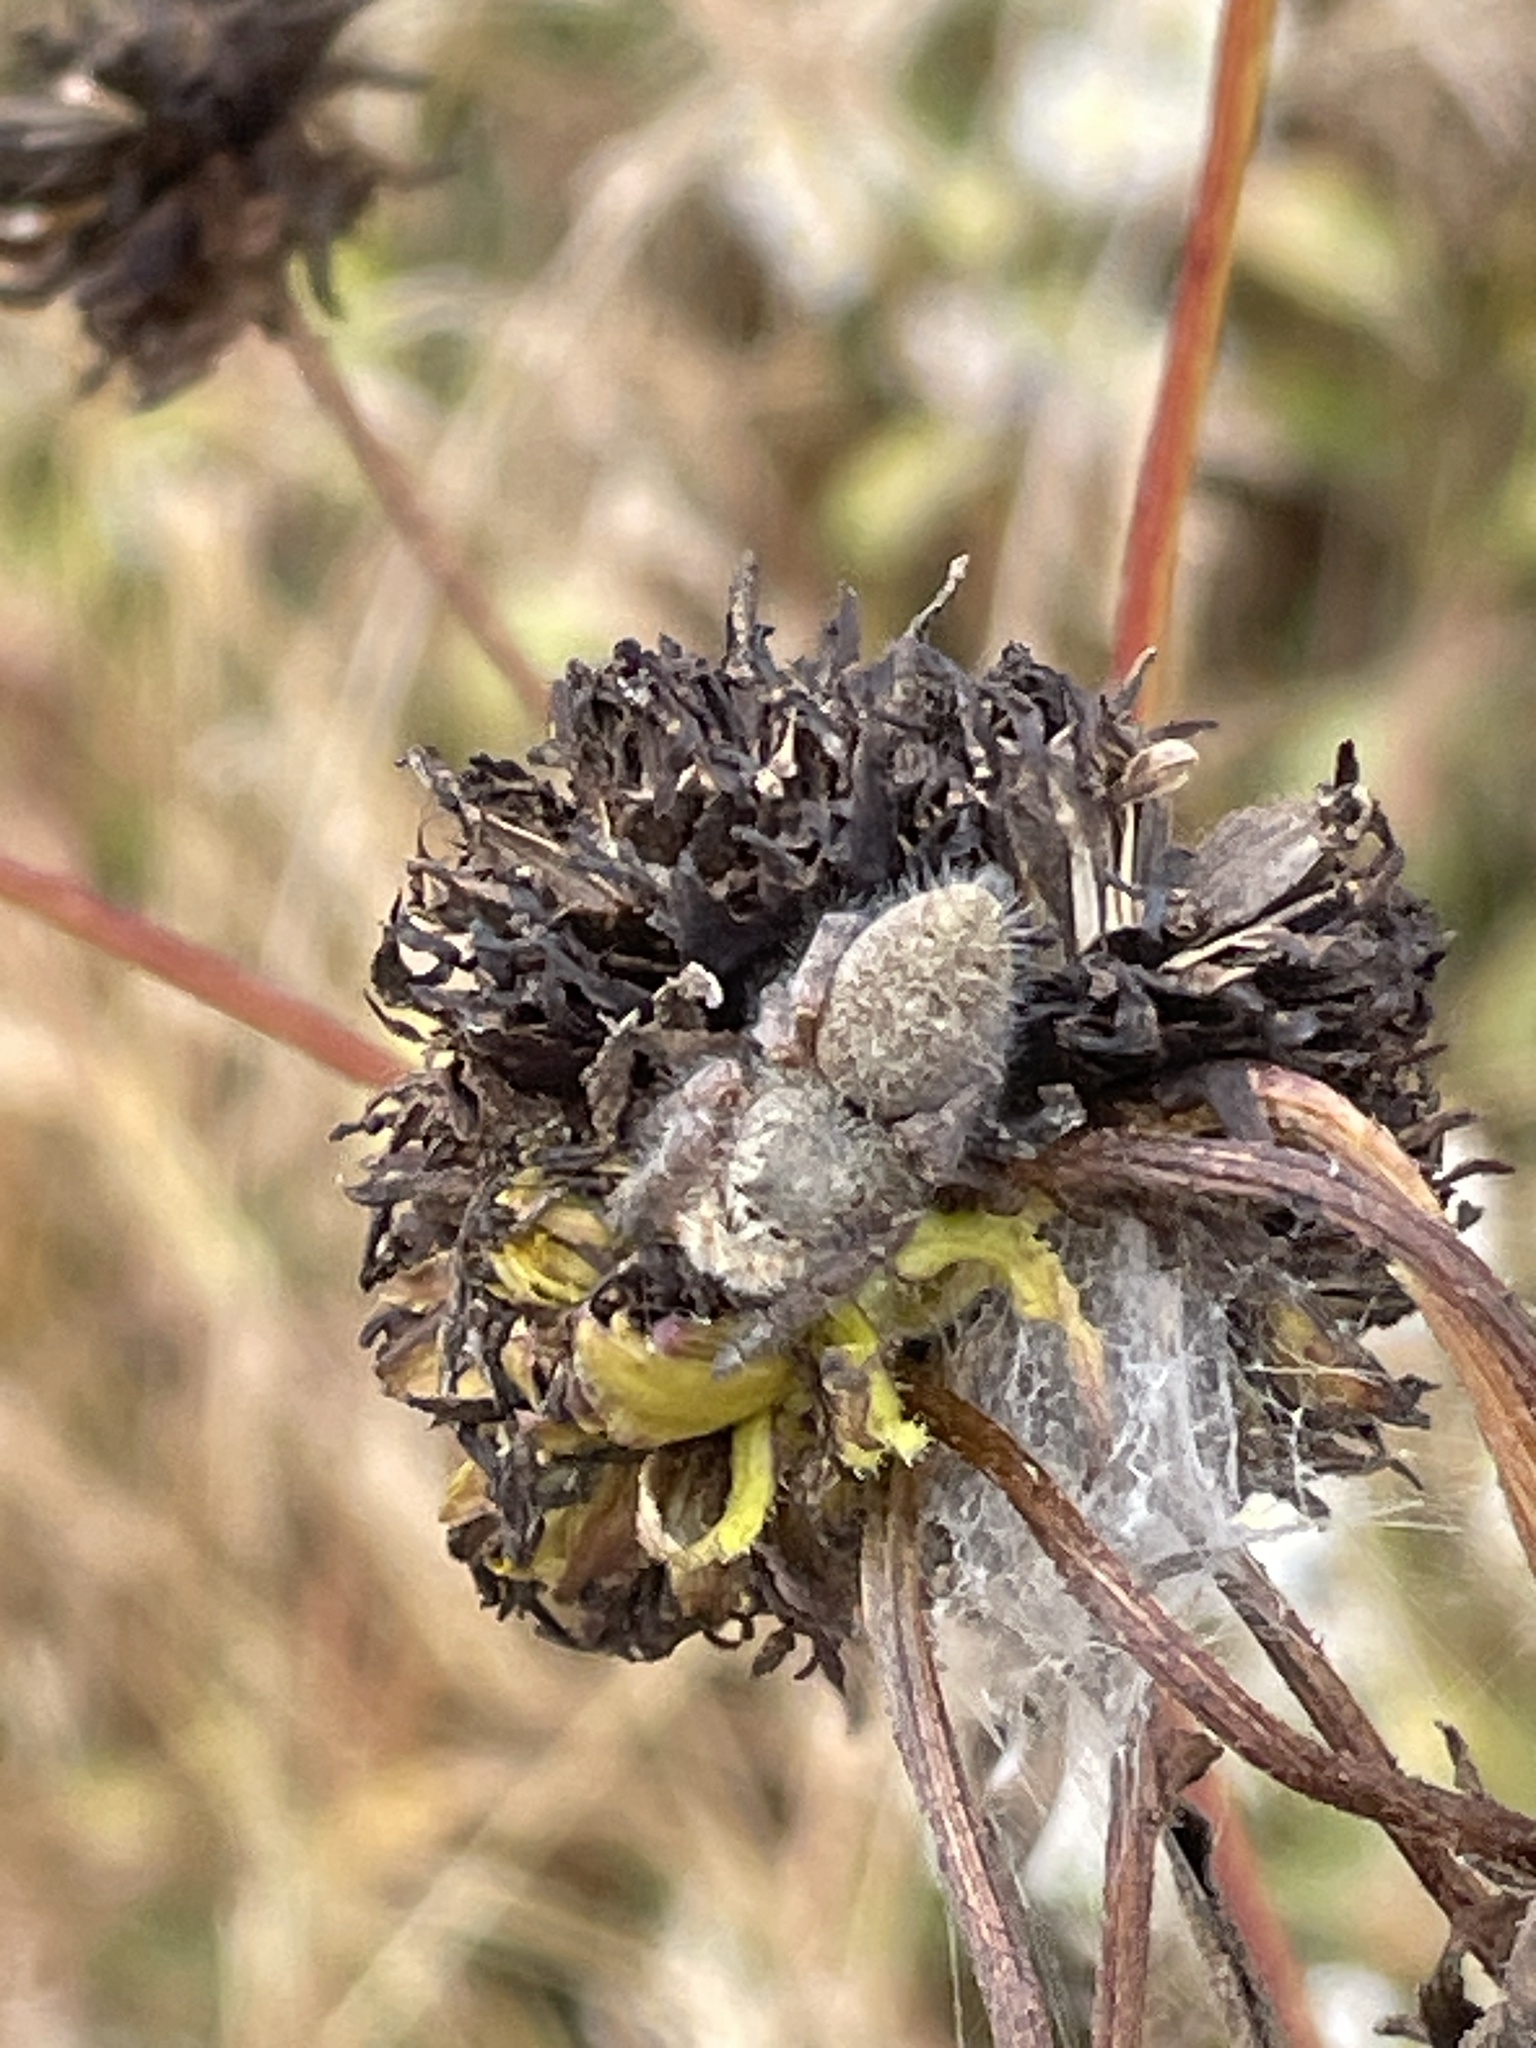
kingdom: Animalia
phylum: Arthropoda
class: Arachnida
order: Araneae
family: Salticidae
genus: Phidippus
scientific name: Phidippus princeps
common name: Grayish jumping spider
